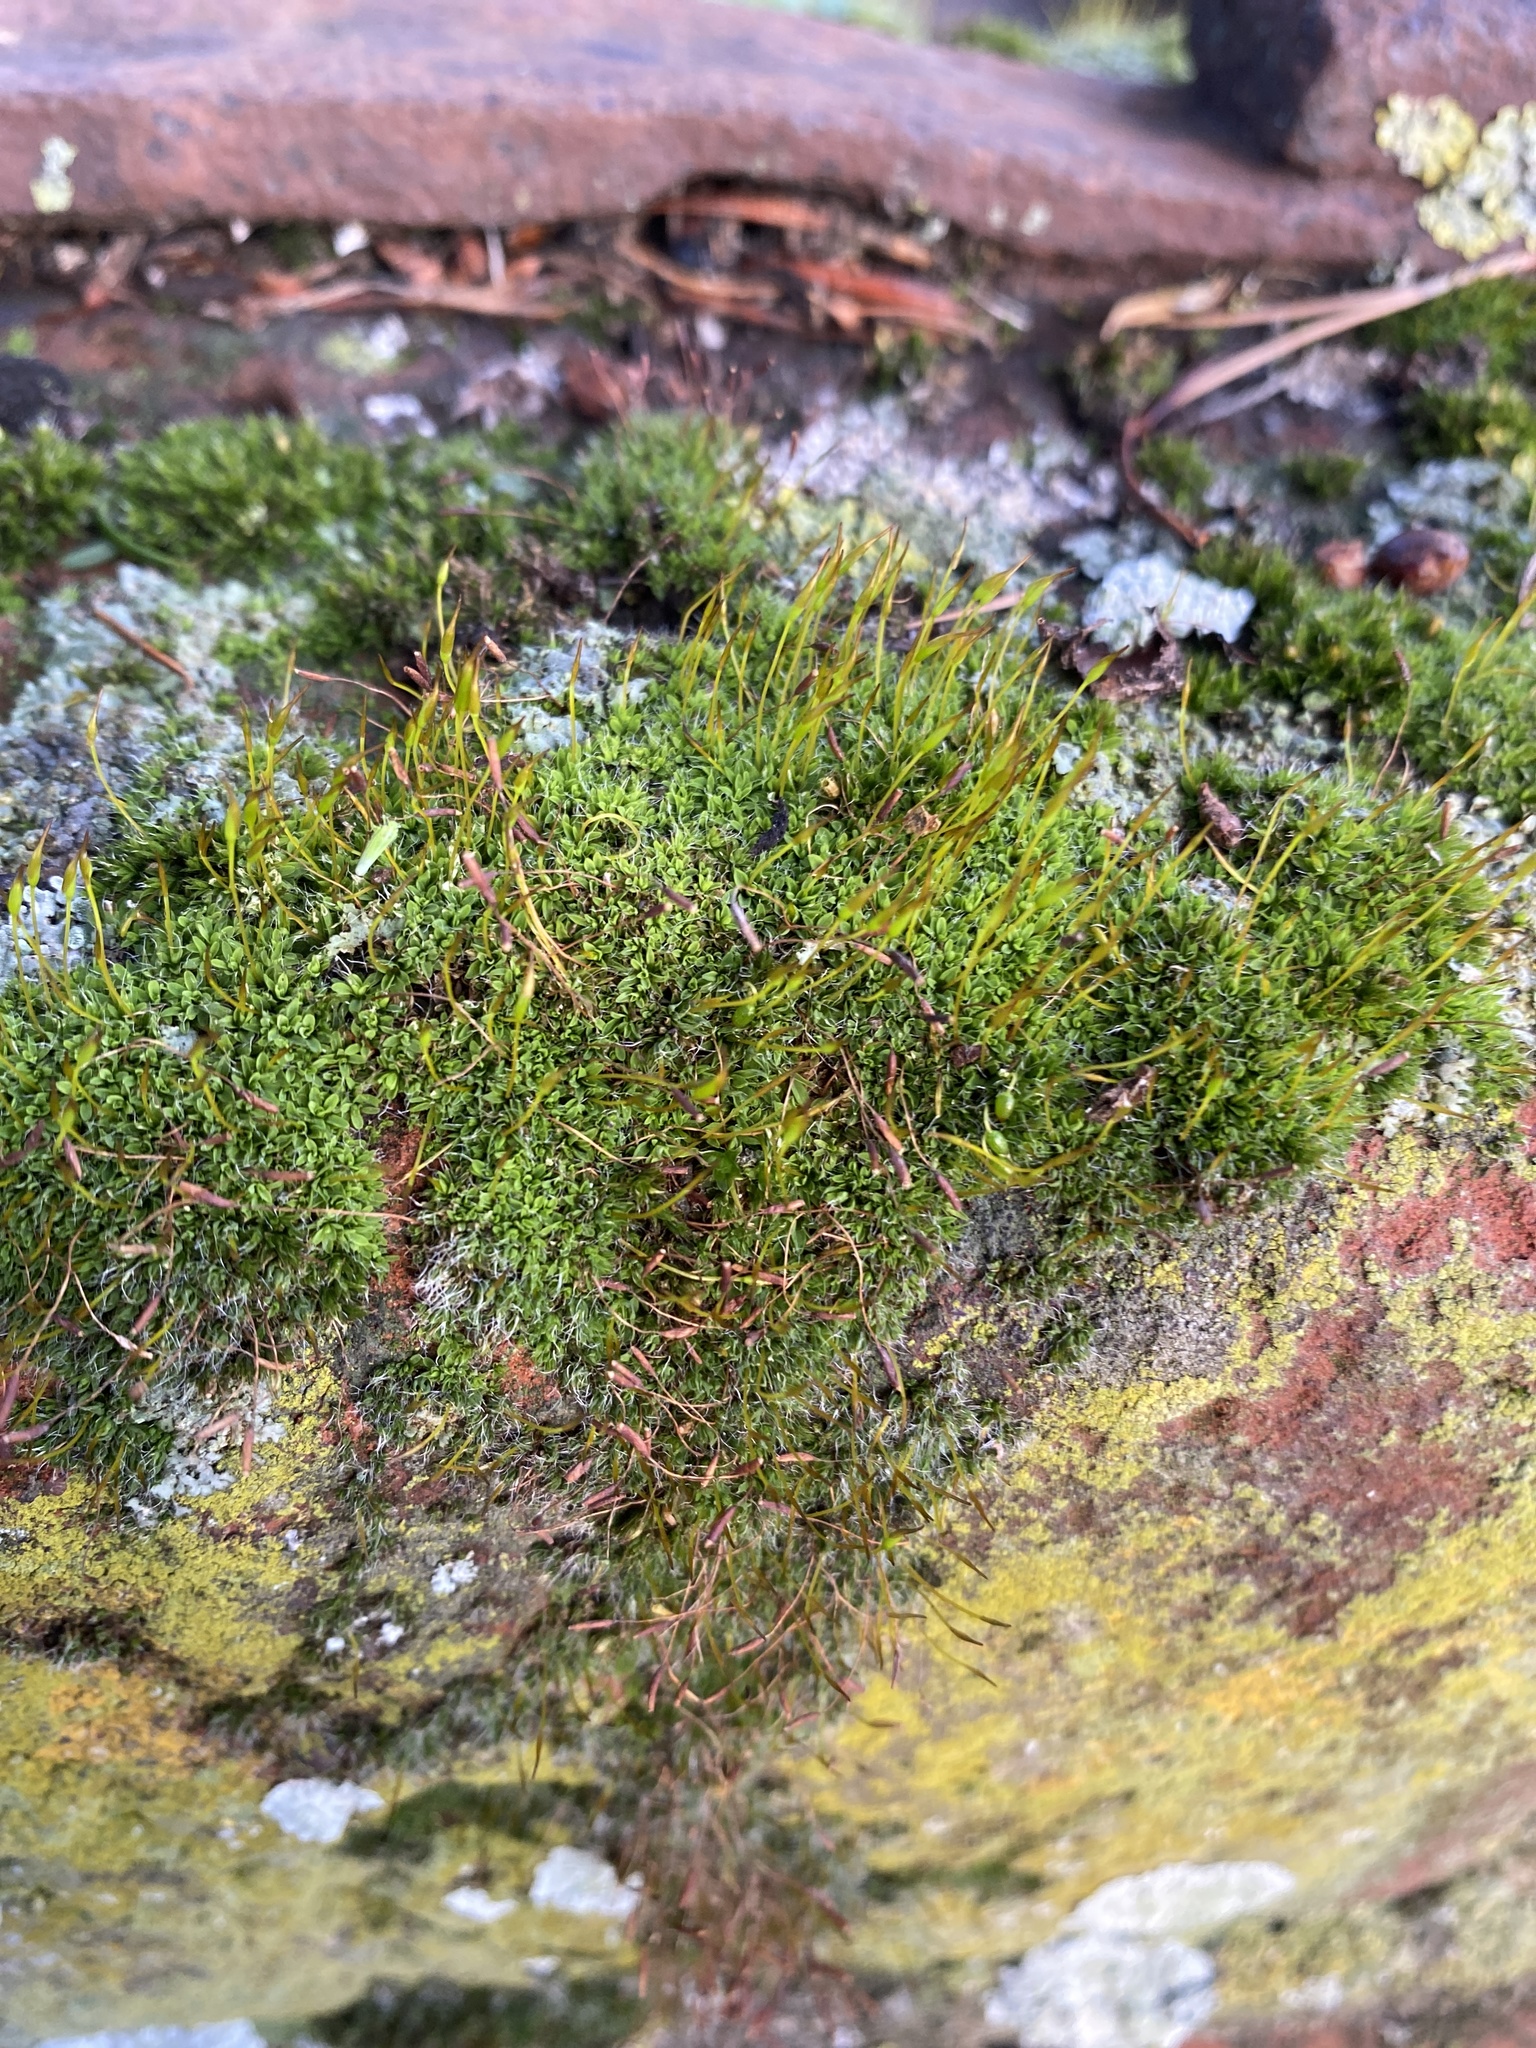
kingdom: Plantae
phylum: Bryophyta
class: Bryopsida
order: Pottiales
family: Pottiaceae
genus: Tortula
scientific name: Tortula muralis
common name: Wall screw-moss
